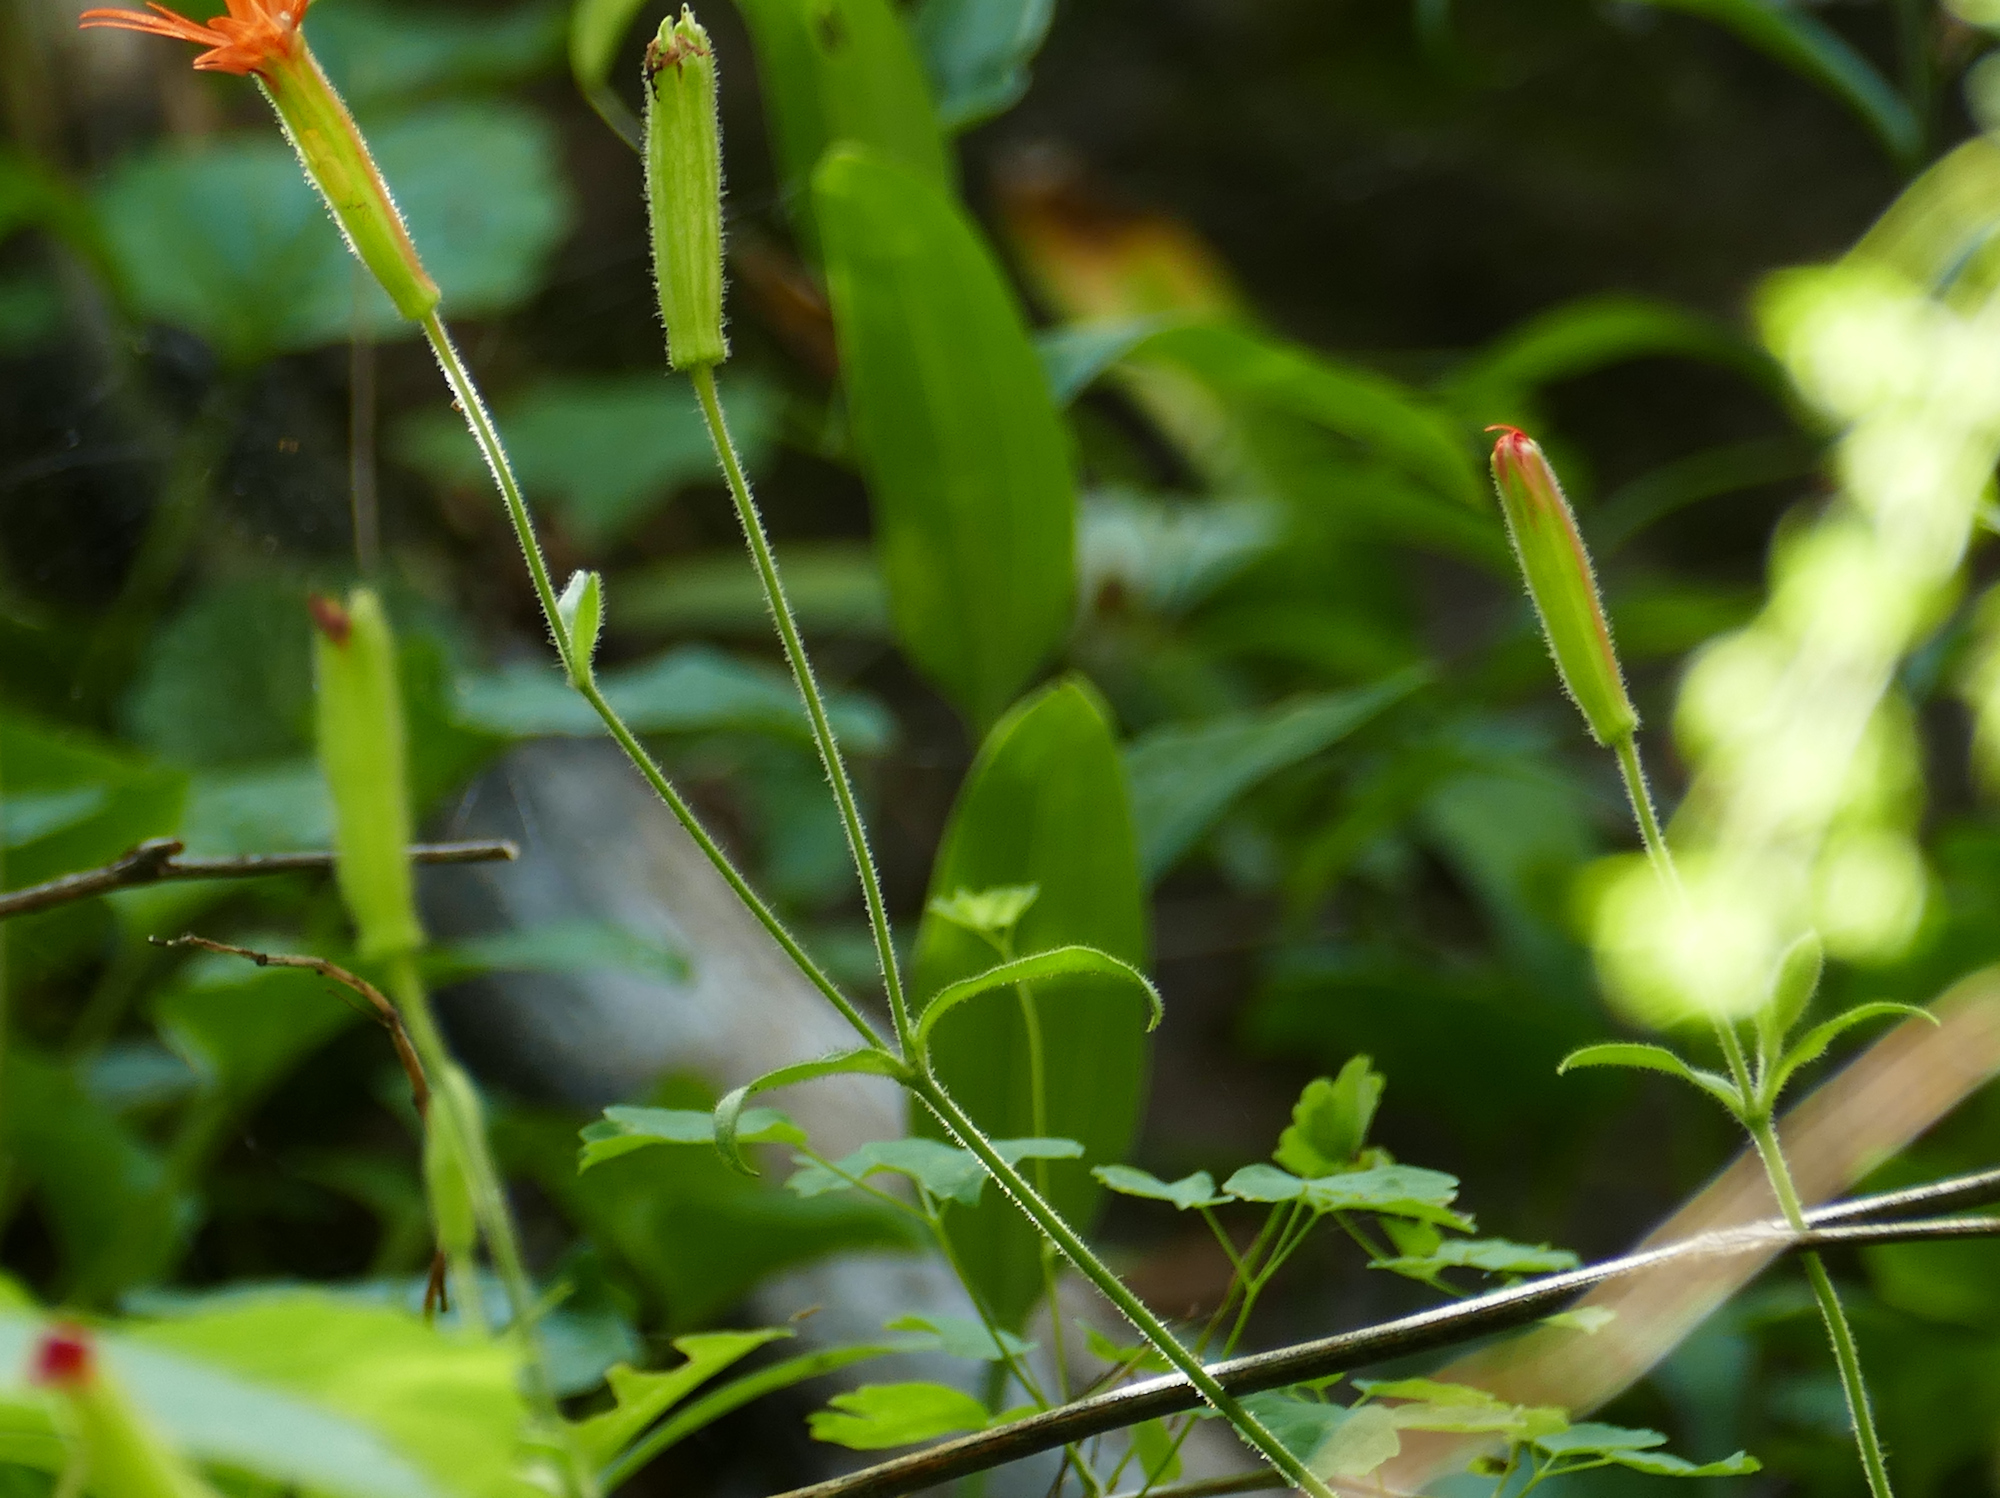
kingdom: Plantae
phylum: Tracheophyta
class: Magnoliopsida
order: Caryophyllales
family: Caryophyllaceae
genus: Silene
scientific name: Silene laciniata
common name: Indian-pink
